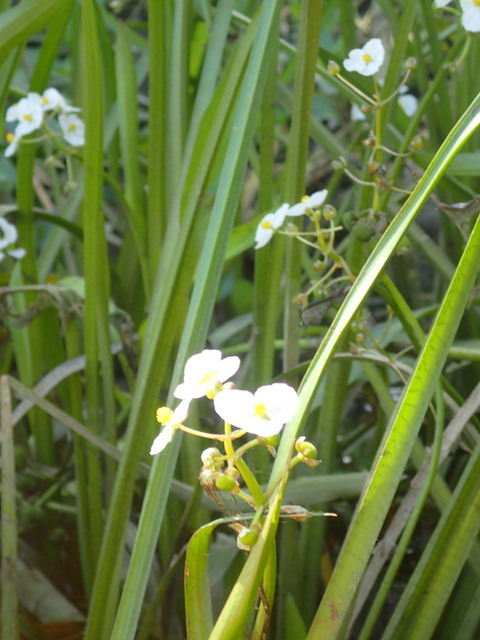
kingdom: Plantae
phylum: Tracheophyta
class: Liliopsida
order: Alismatales
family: Alismataceae
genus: Sagittaria
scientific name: Sagittaria platyphylla
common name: Broad-leaf arrowhead
